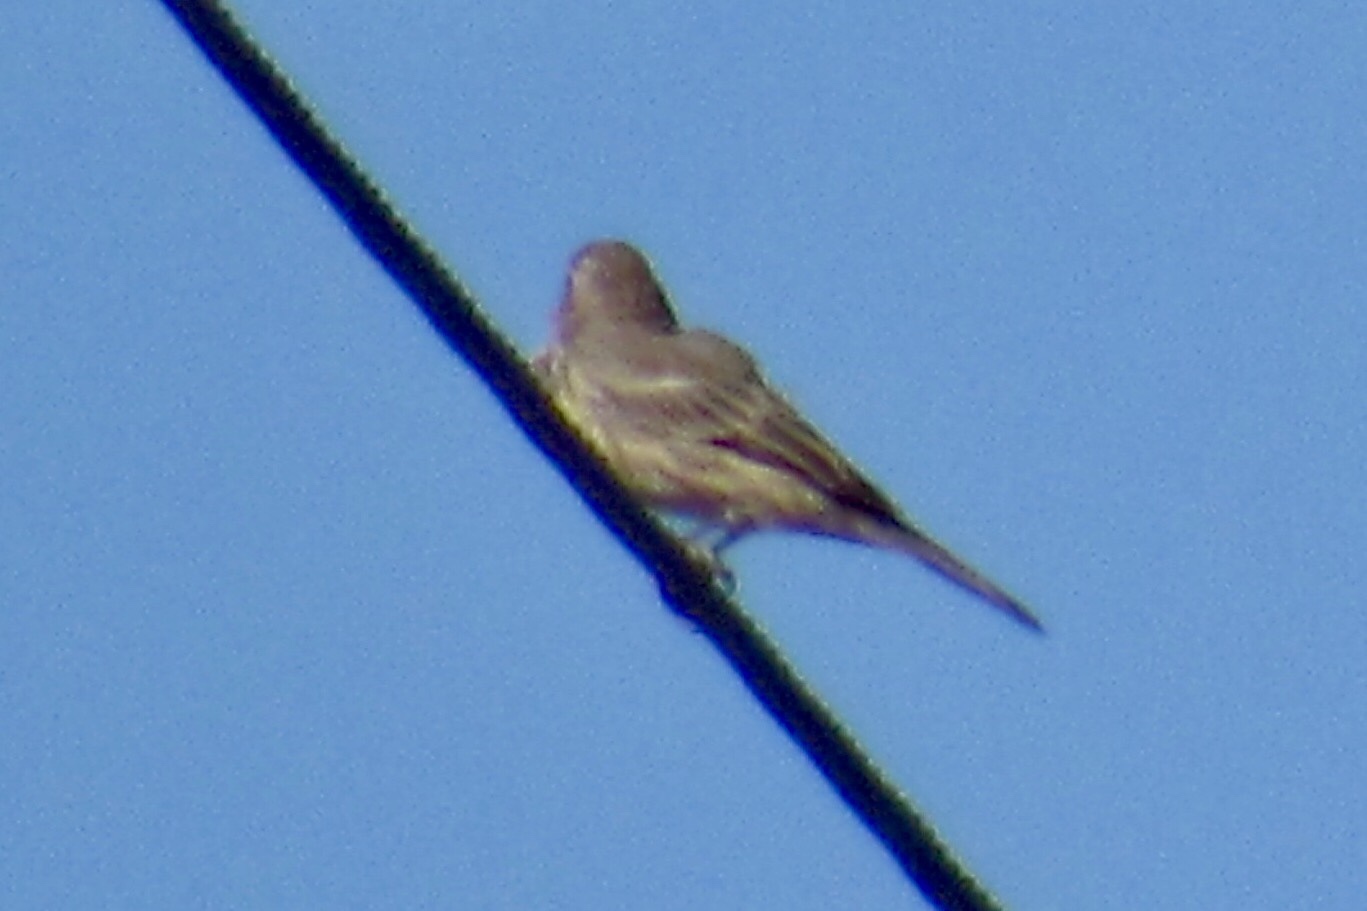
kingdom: Animalia
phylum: Chordata
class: Aves
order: Passeriformes
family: Fringillidae
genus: Haemorhous
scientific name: Haemorhous mexicanus
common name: House finch
